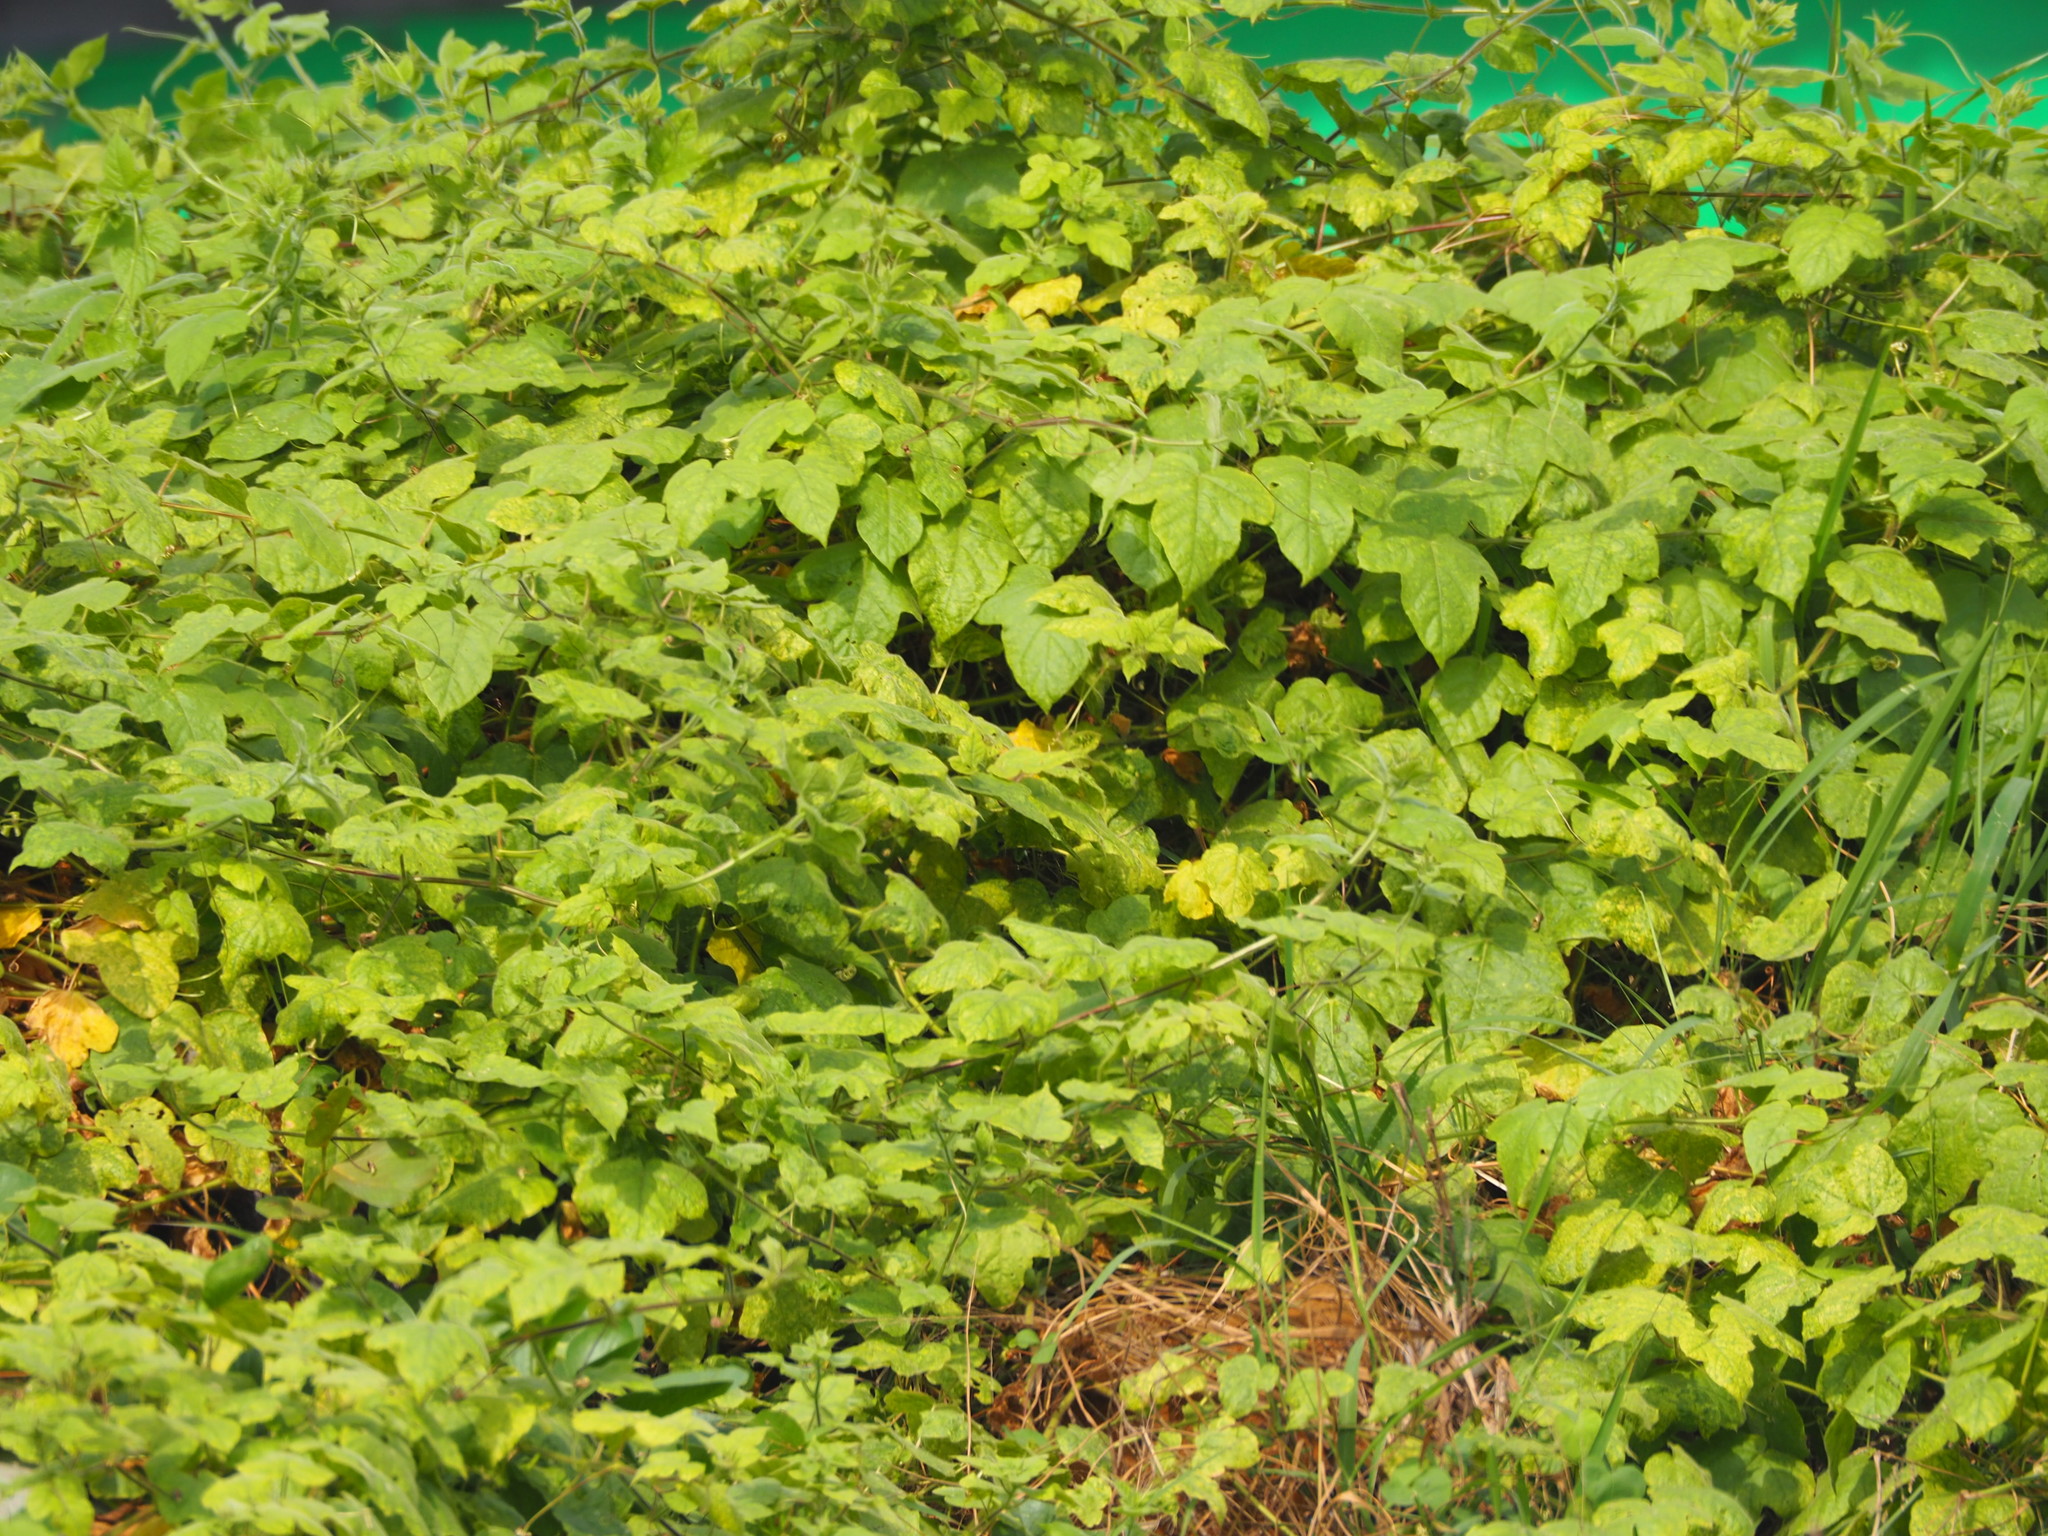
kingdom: Plantae
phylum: Tracheophyta
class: Magnoliopsida
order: Malpighiales
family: Passifloraceae
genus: Passiflora
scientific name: Passiflora vesicaria
